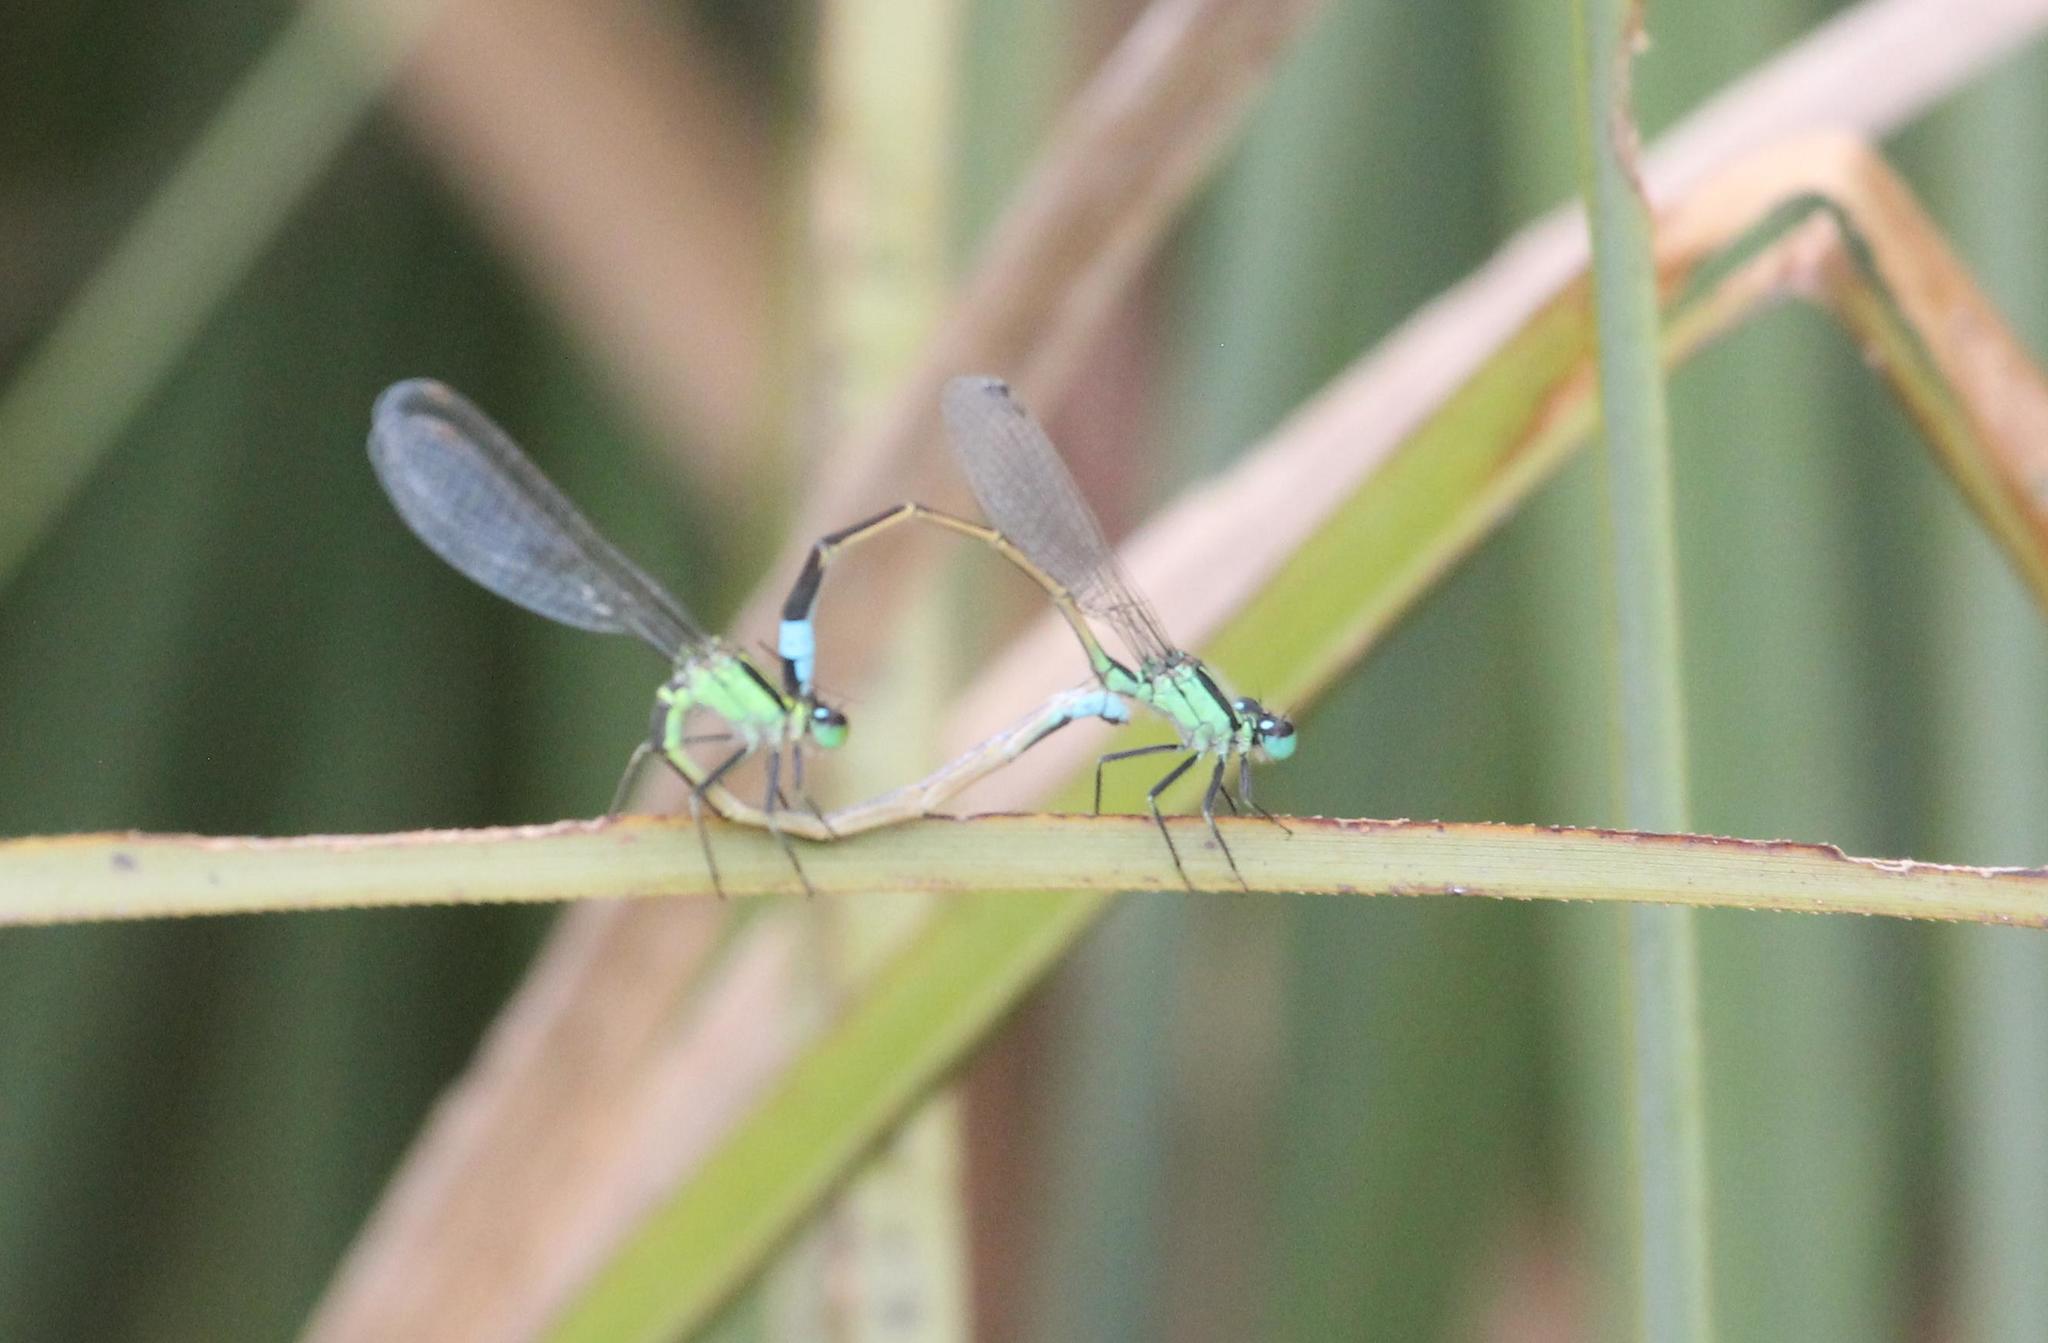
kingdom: Animalia
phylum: Arthropoda
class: Insecta
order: Odonata
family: Coenagrionidae
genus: Ischnura
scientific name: Ischnura ramburii
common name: Rambur's forktail
